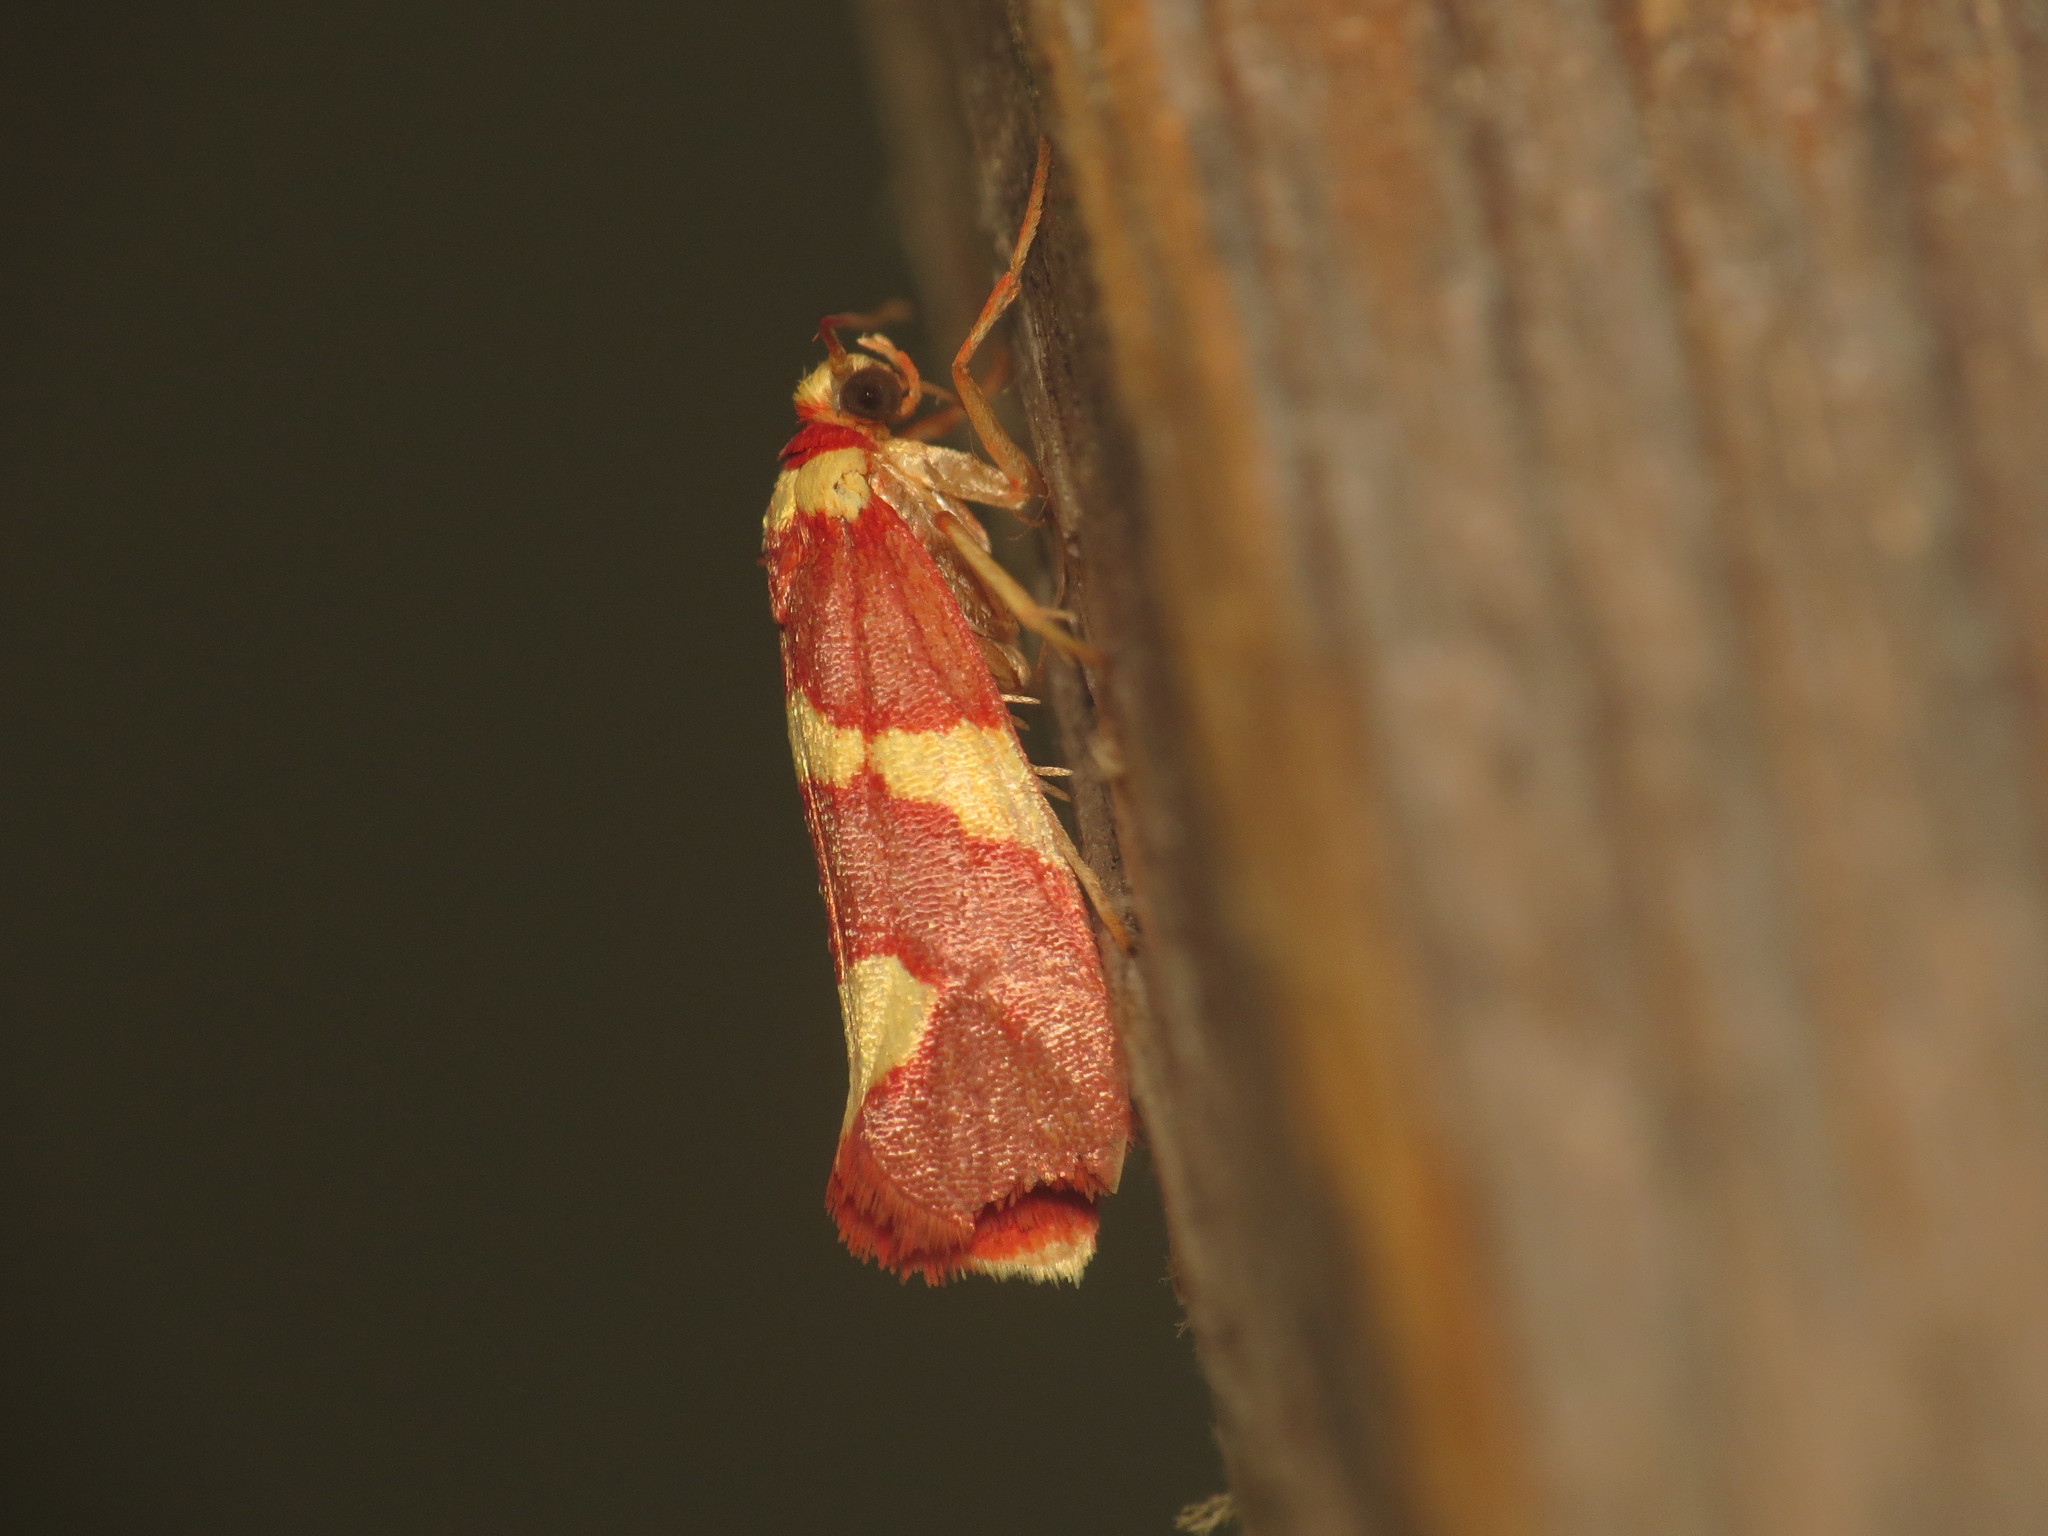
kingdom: Animalia
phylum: Arthropoda
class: Insecta
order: Lepidoptera
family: Lacturidae
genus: Anticrates
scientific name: Anticrates metreta
